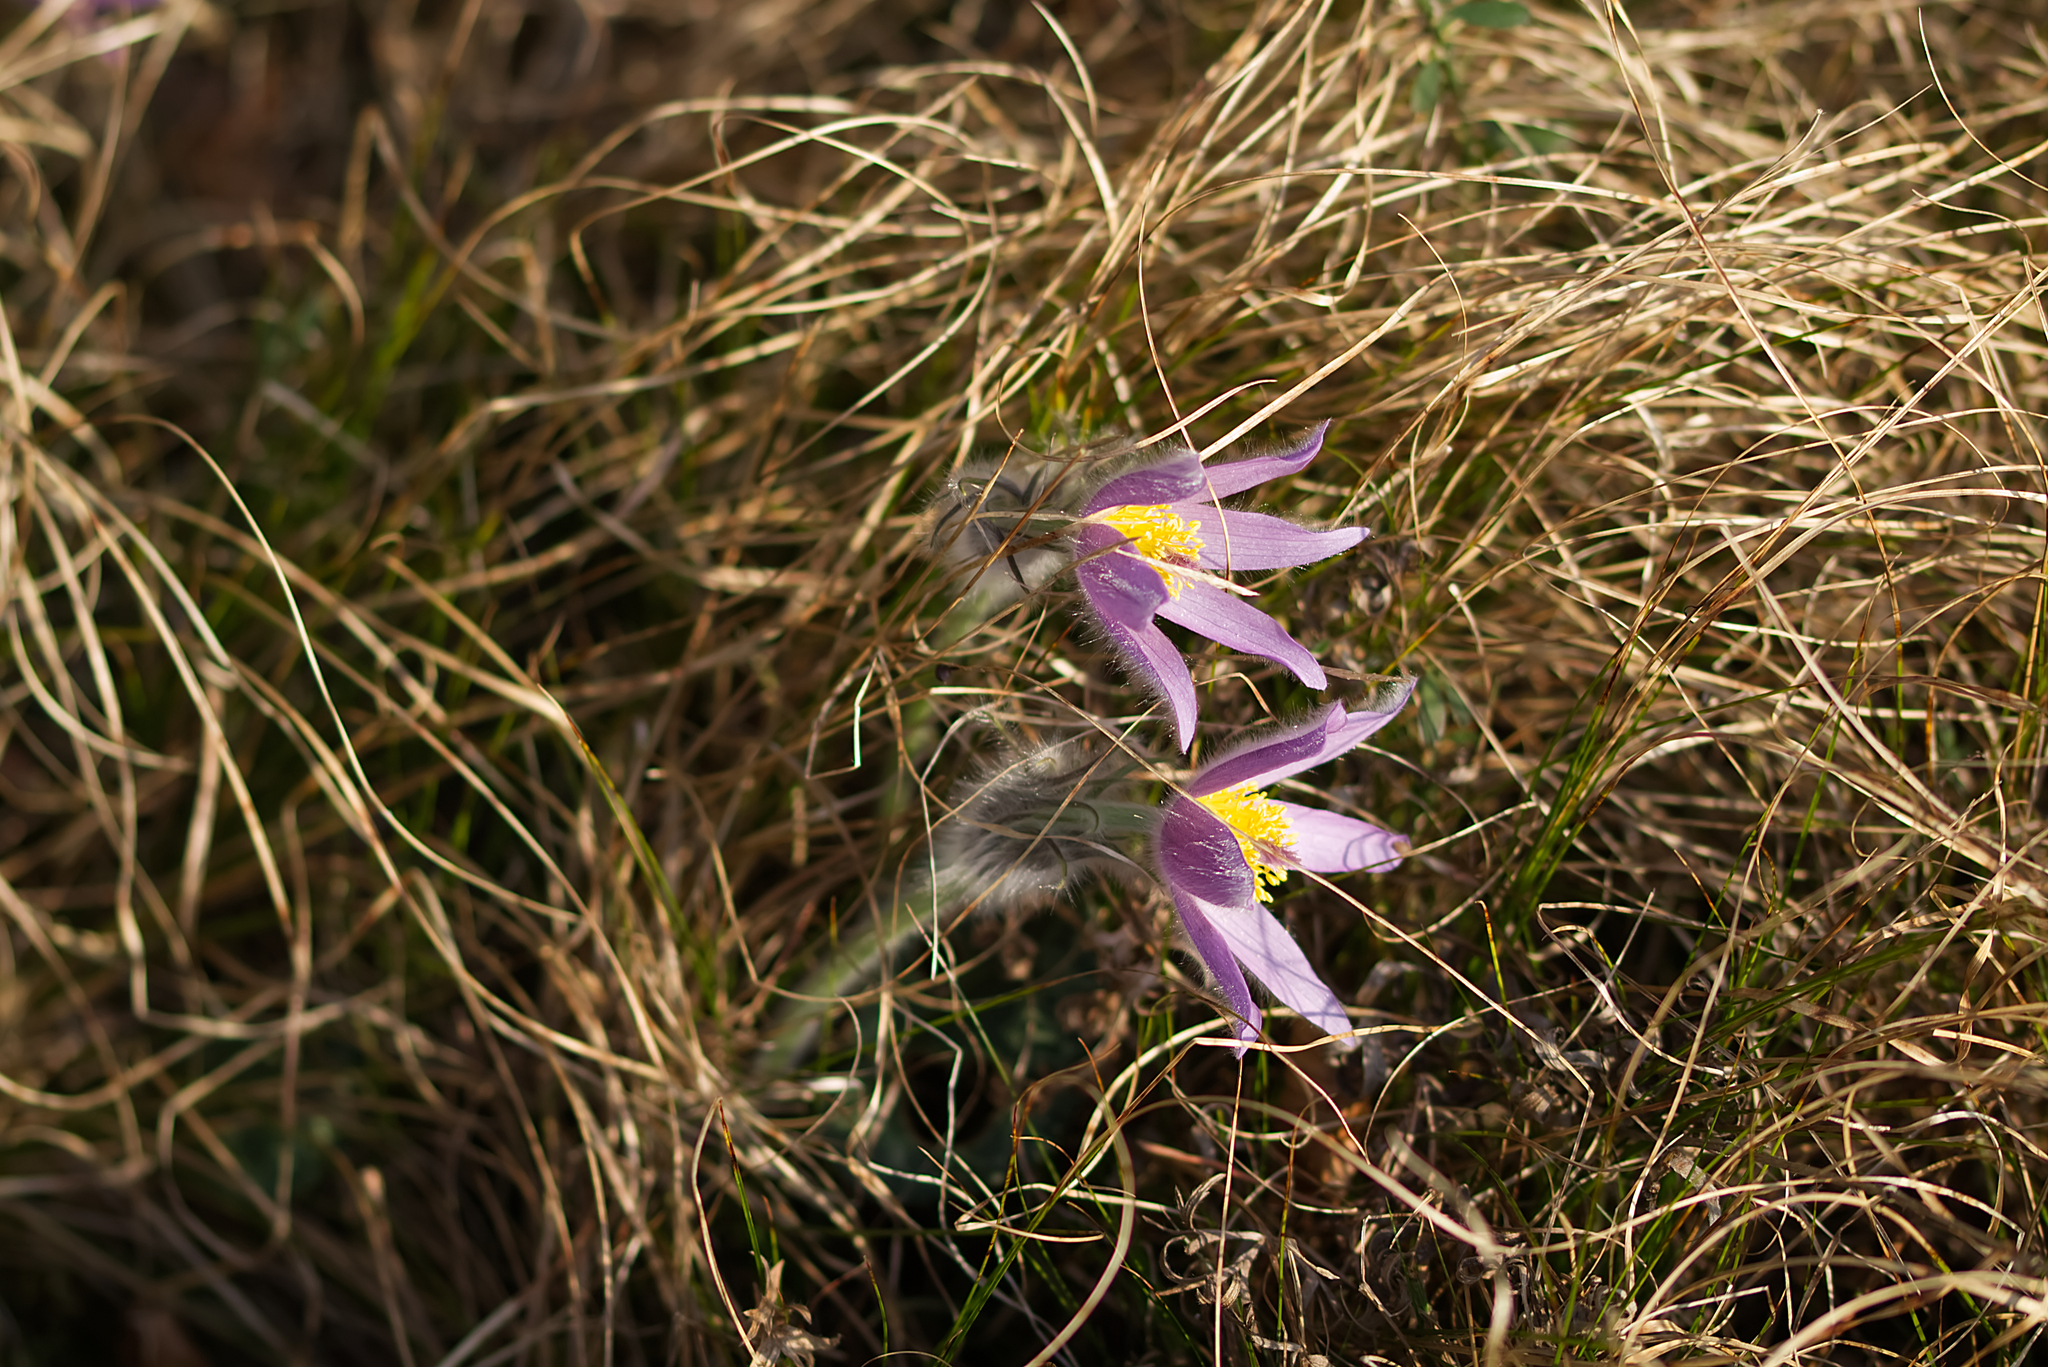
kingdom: Plantae
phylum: Tracheophyta
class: Magnoliopsida
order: Ranunculales
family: Ranunculaceae
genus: Pulsatilla
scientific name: Pulsatilla grandis
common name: Greater pasque flower
